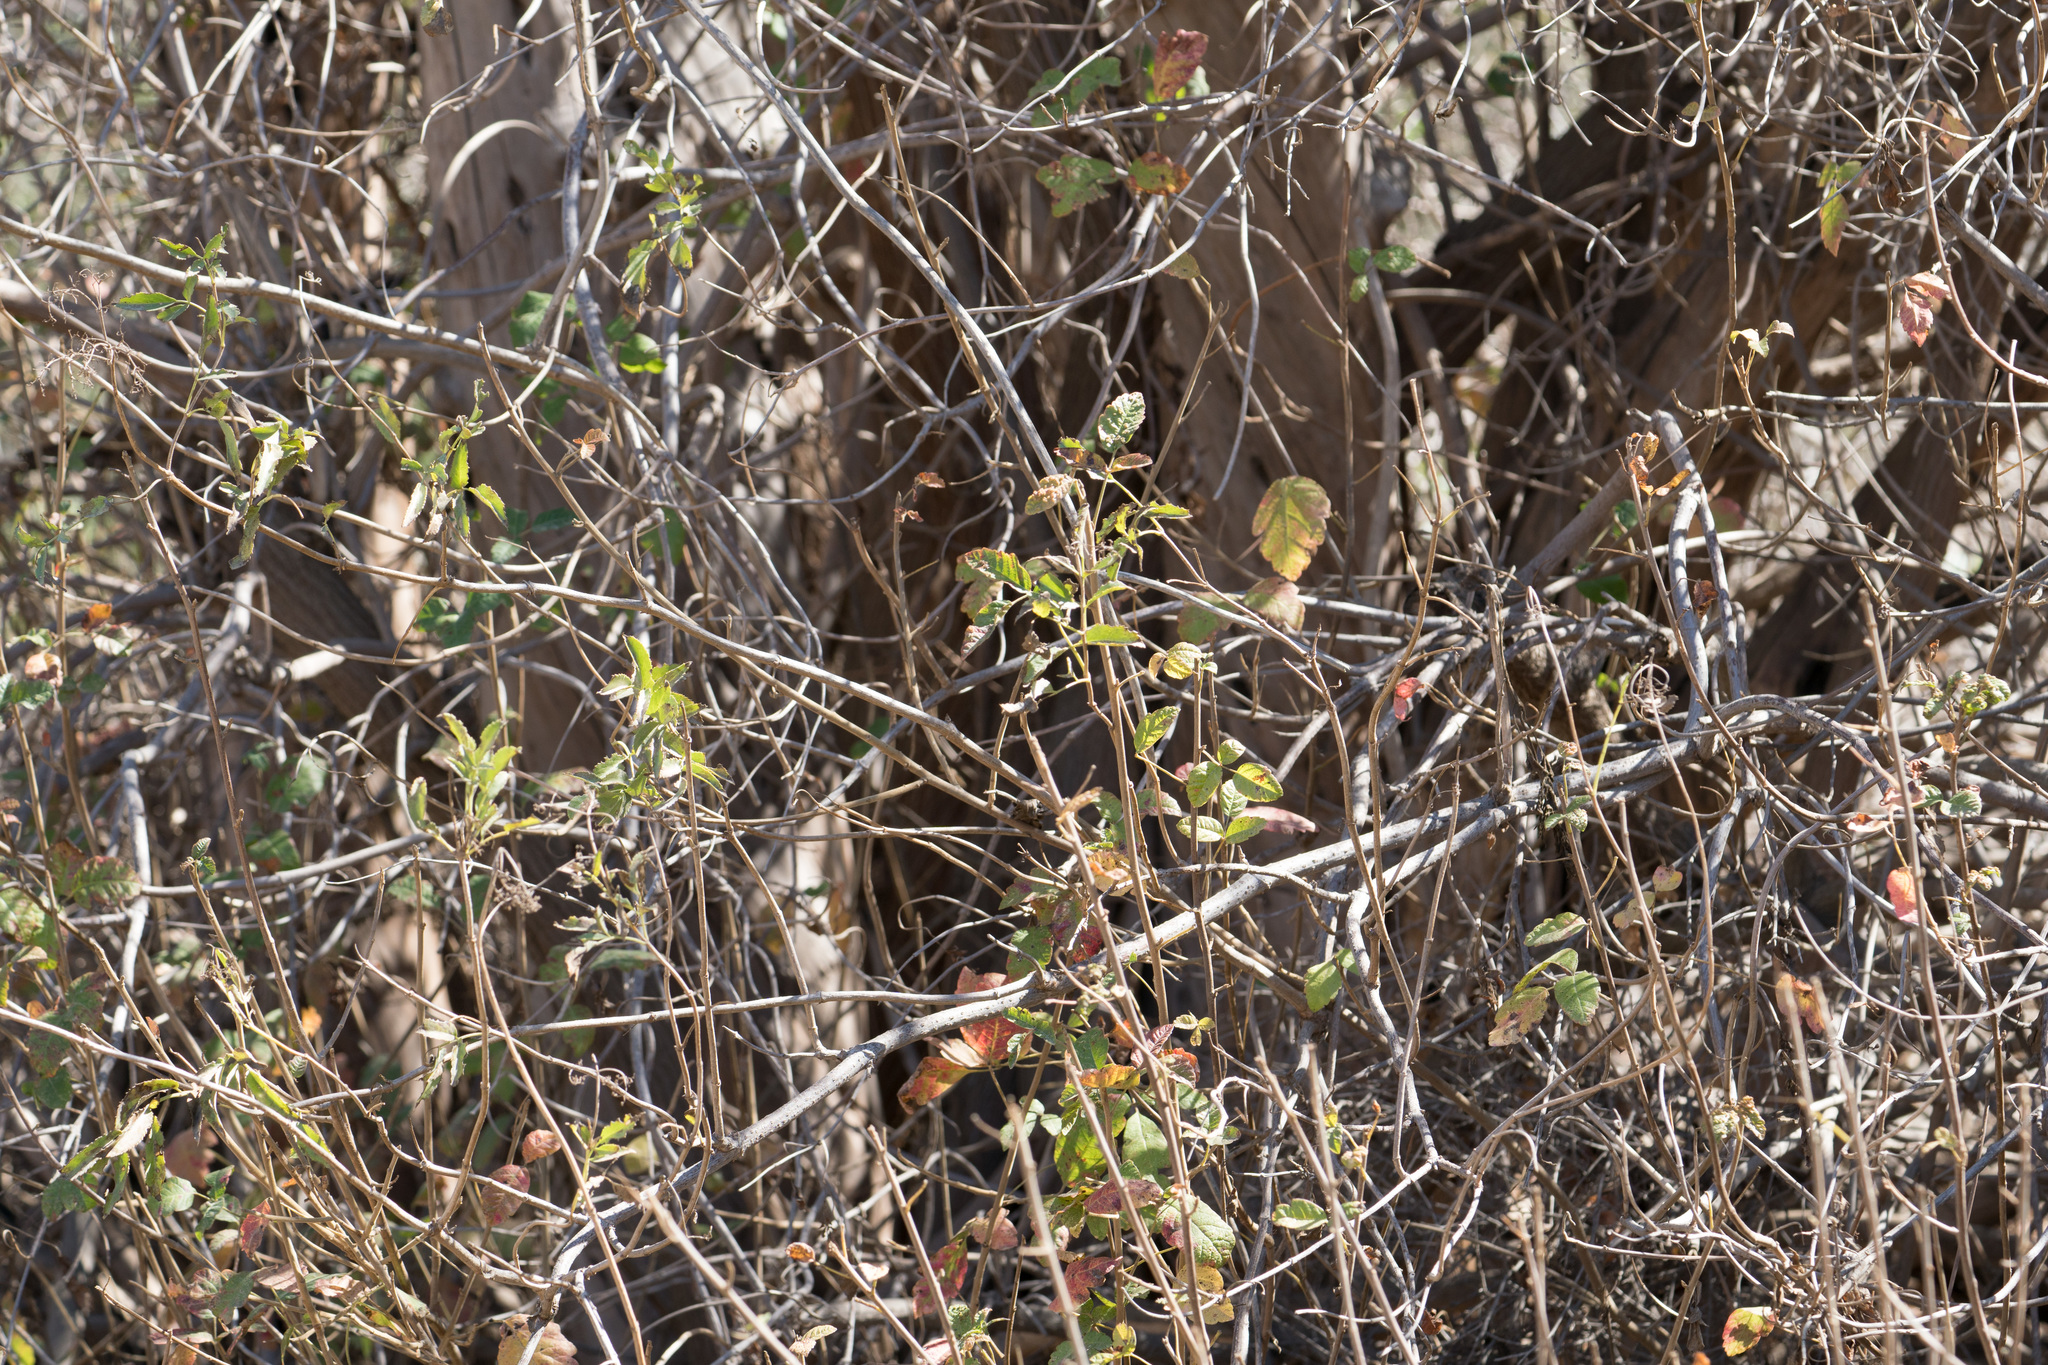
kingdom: Plantae
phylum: Tracheophyta
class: Magnoliopsida
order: Sapindales
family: Anacardiaceae
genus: Toxicodendron
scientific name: Toxicodendron diversilobum
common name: Pacific poison-oak
